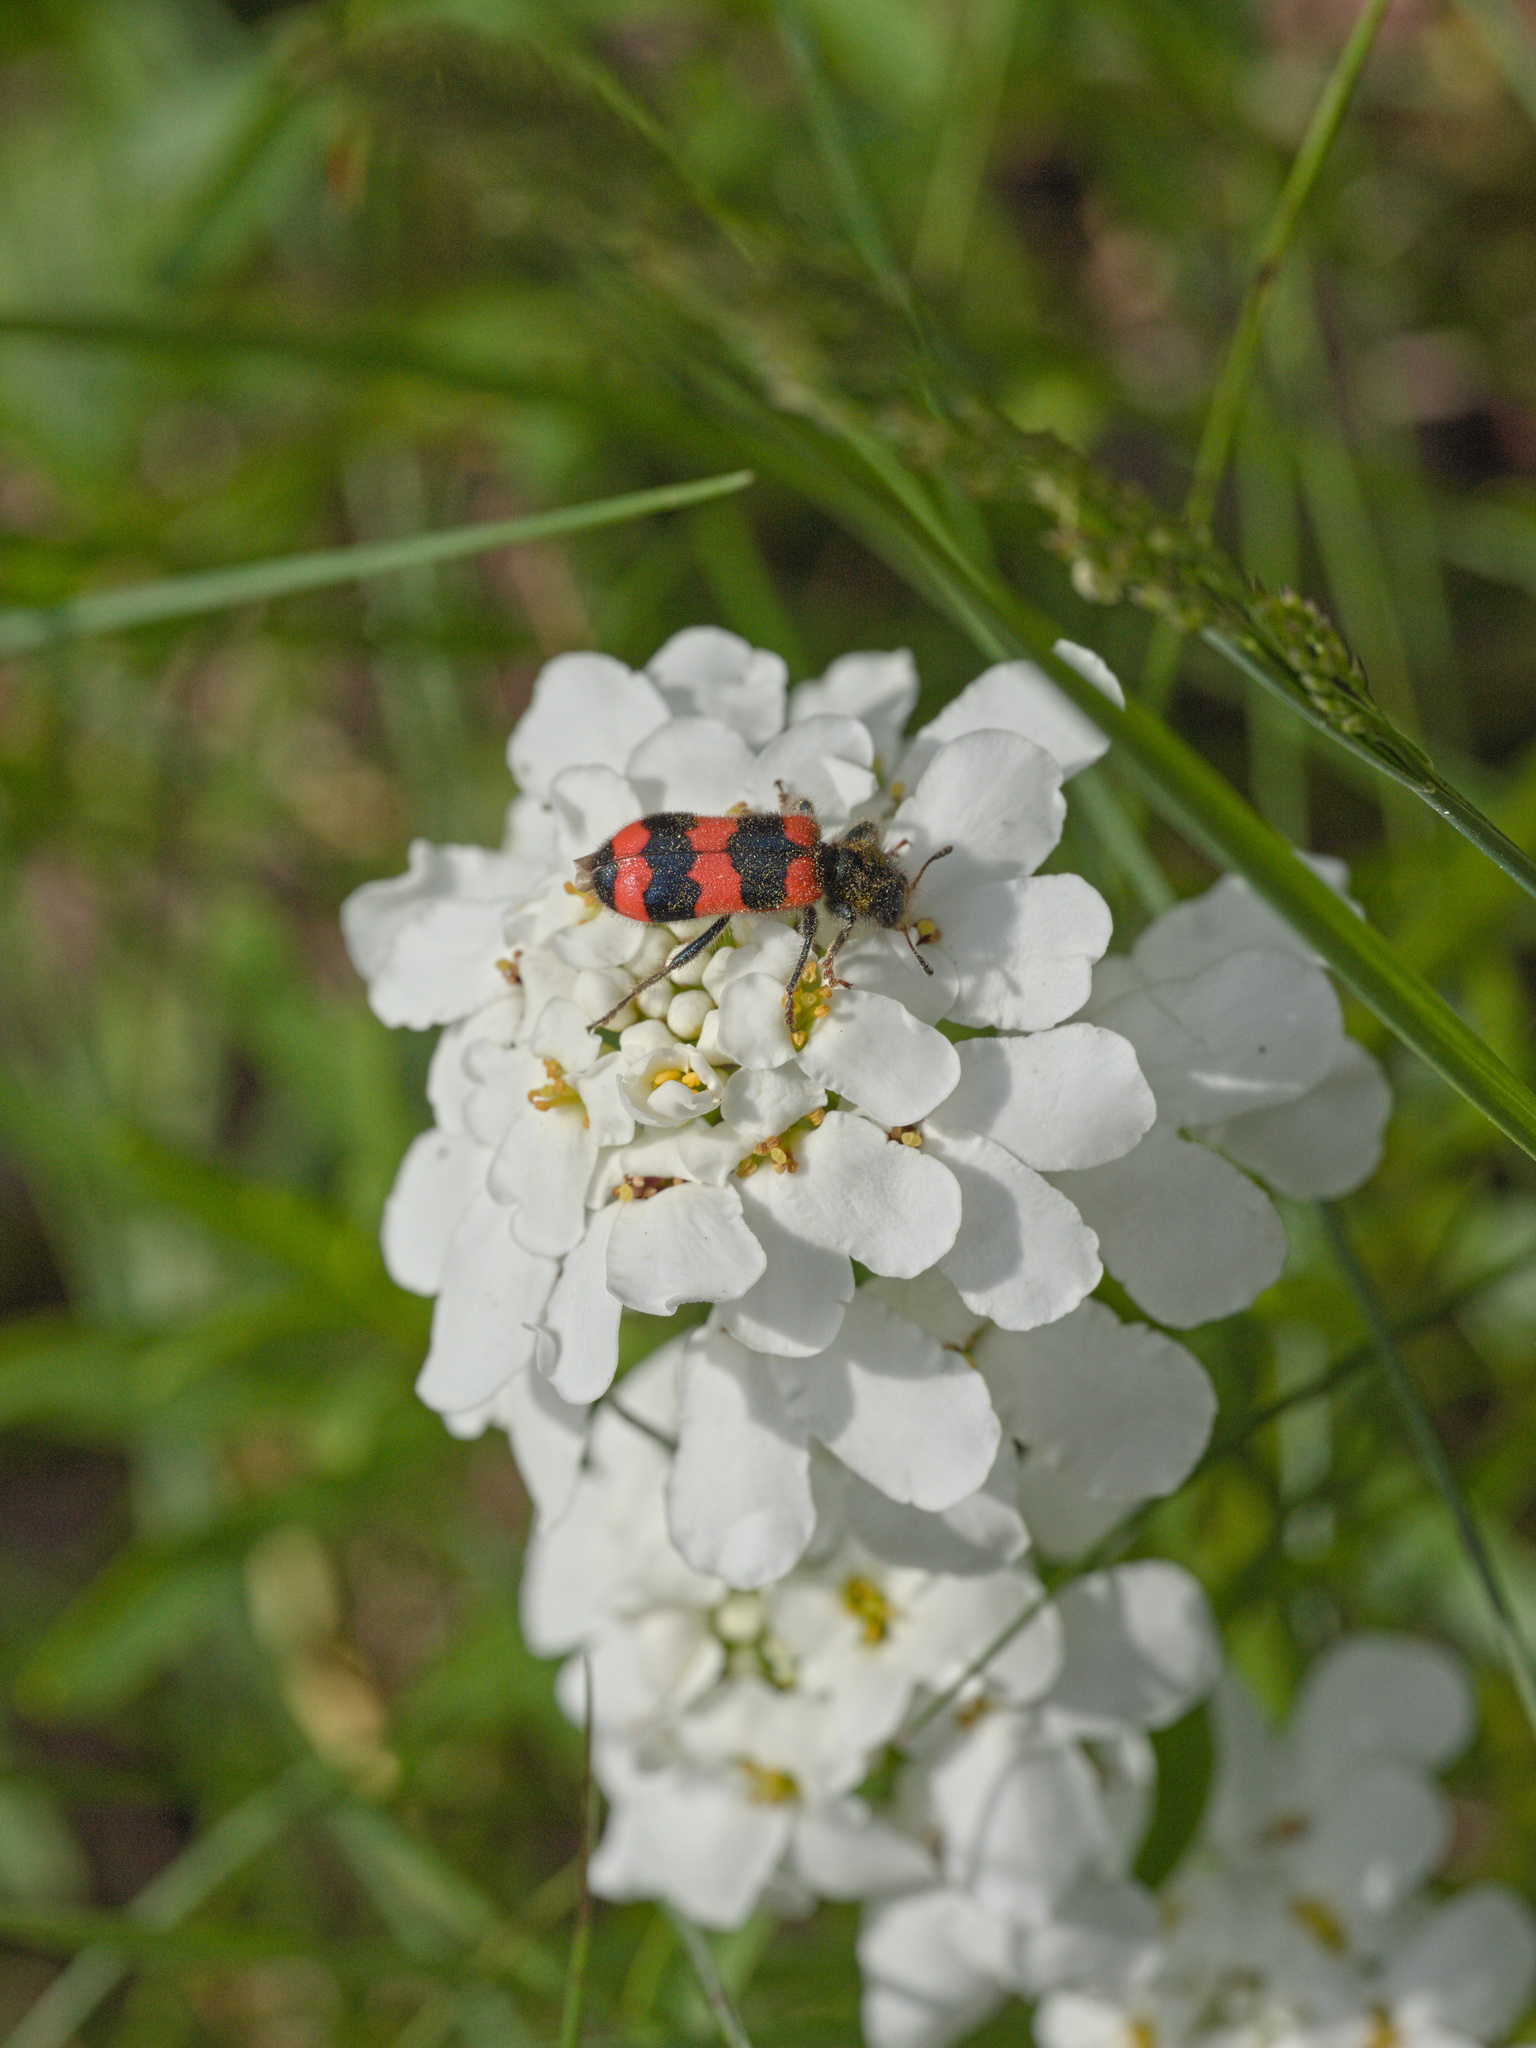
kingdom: Animalia
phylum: Arthropoda
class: Insecta
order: Coleoptera
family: Cleridae
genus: Trichodes
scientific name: Trichodes apiarius
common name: Bee-eating beetle
